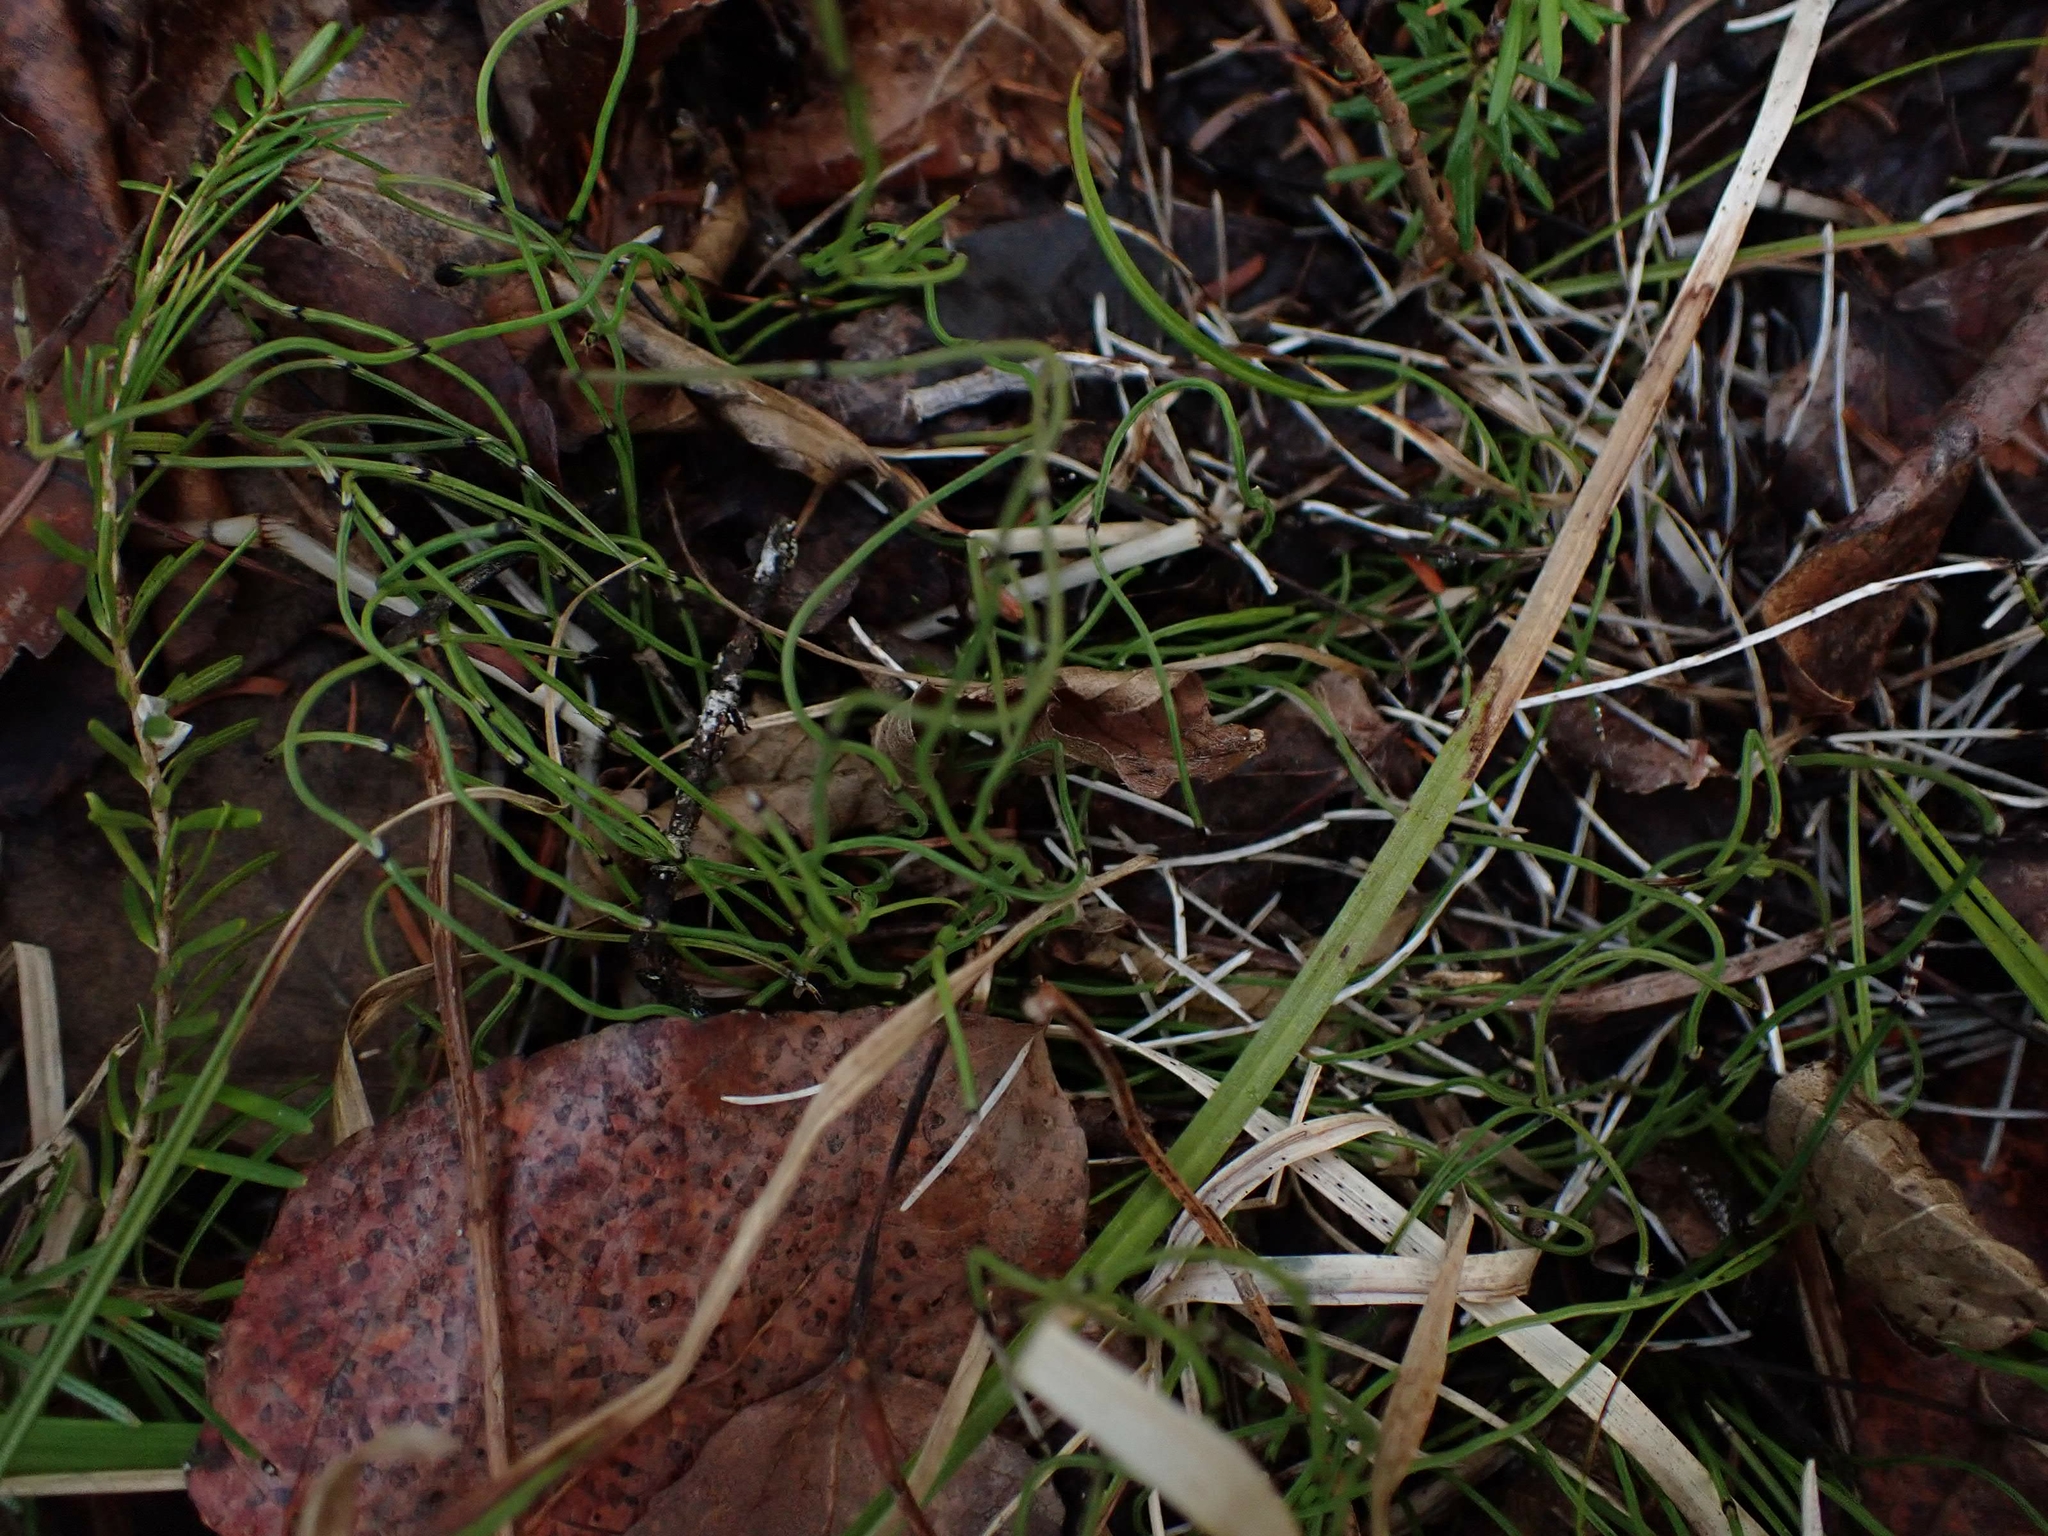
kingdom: Plantae
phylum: Tracheophyta
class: Polypodiopsida
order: Equisetales
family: Equisetaceae
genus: Equisetum
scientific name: Equisetum scirpoides
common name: Delicate horsetail
